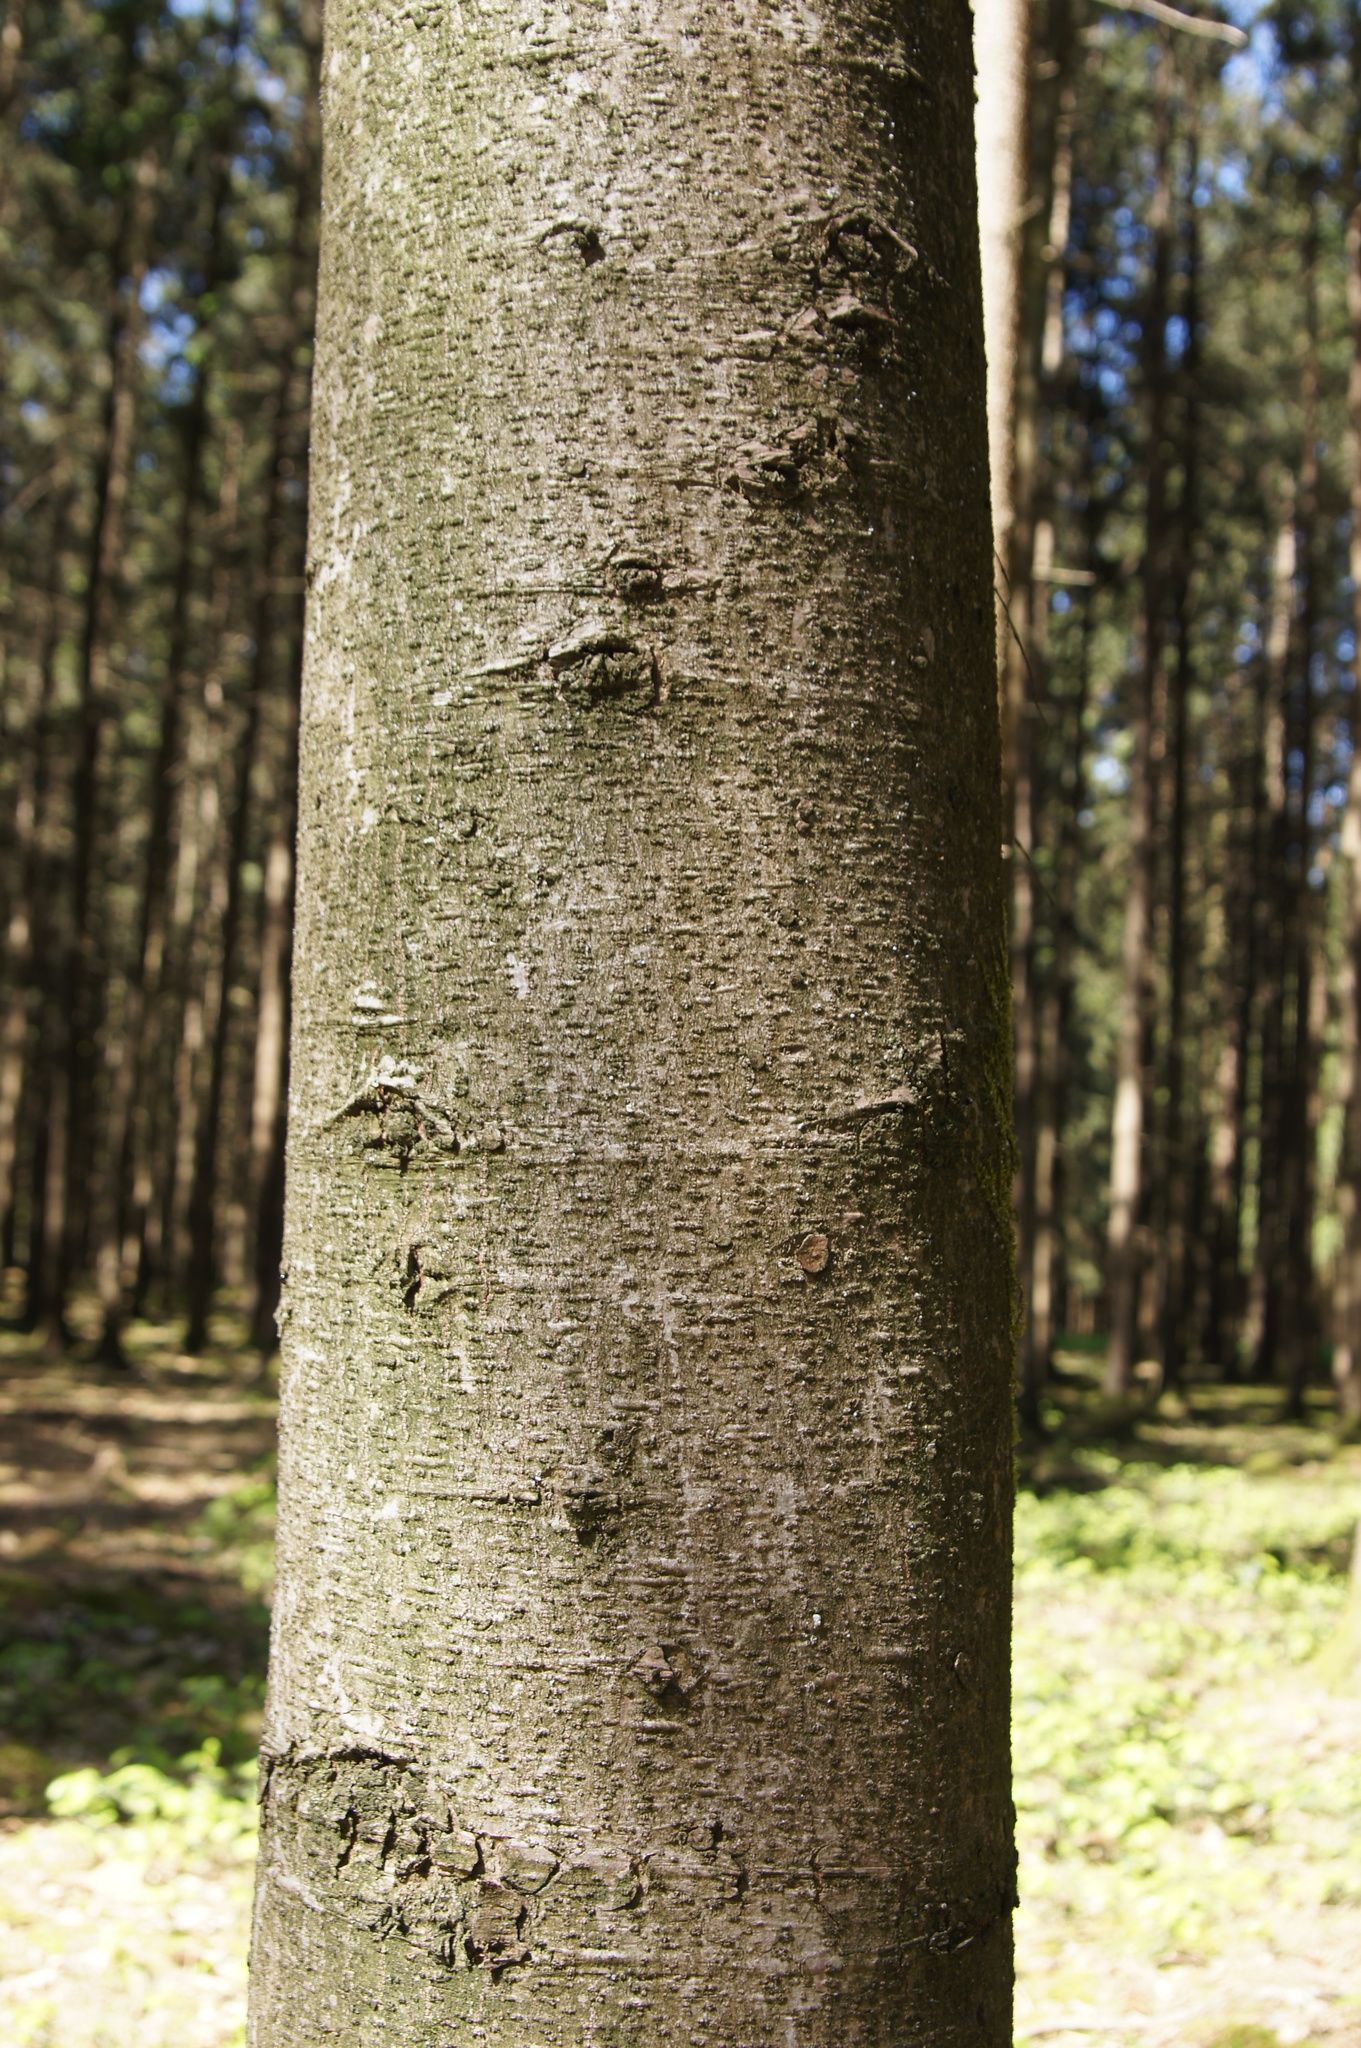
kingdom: Plantae
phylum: Tracheophyta
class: Pinopsida
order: Pinales
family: Pinaceae
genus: Abies
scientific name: Abies alba
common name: Silver fir
